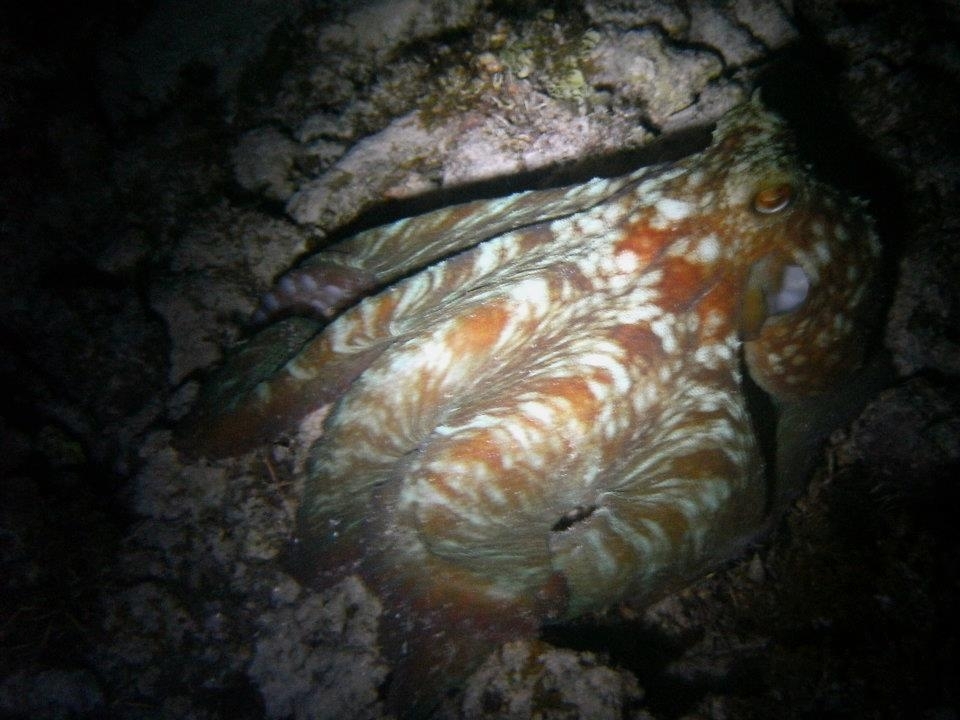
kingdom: Animalia
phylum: Mollusca
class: Cephalopoda
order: Octopoda
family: Octopodidae
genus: Octopus
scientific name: Octopus briareus
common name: Caribbean reef octopus
